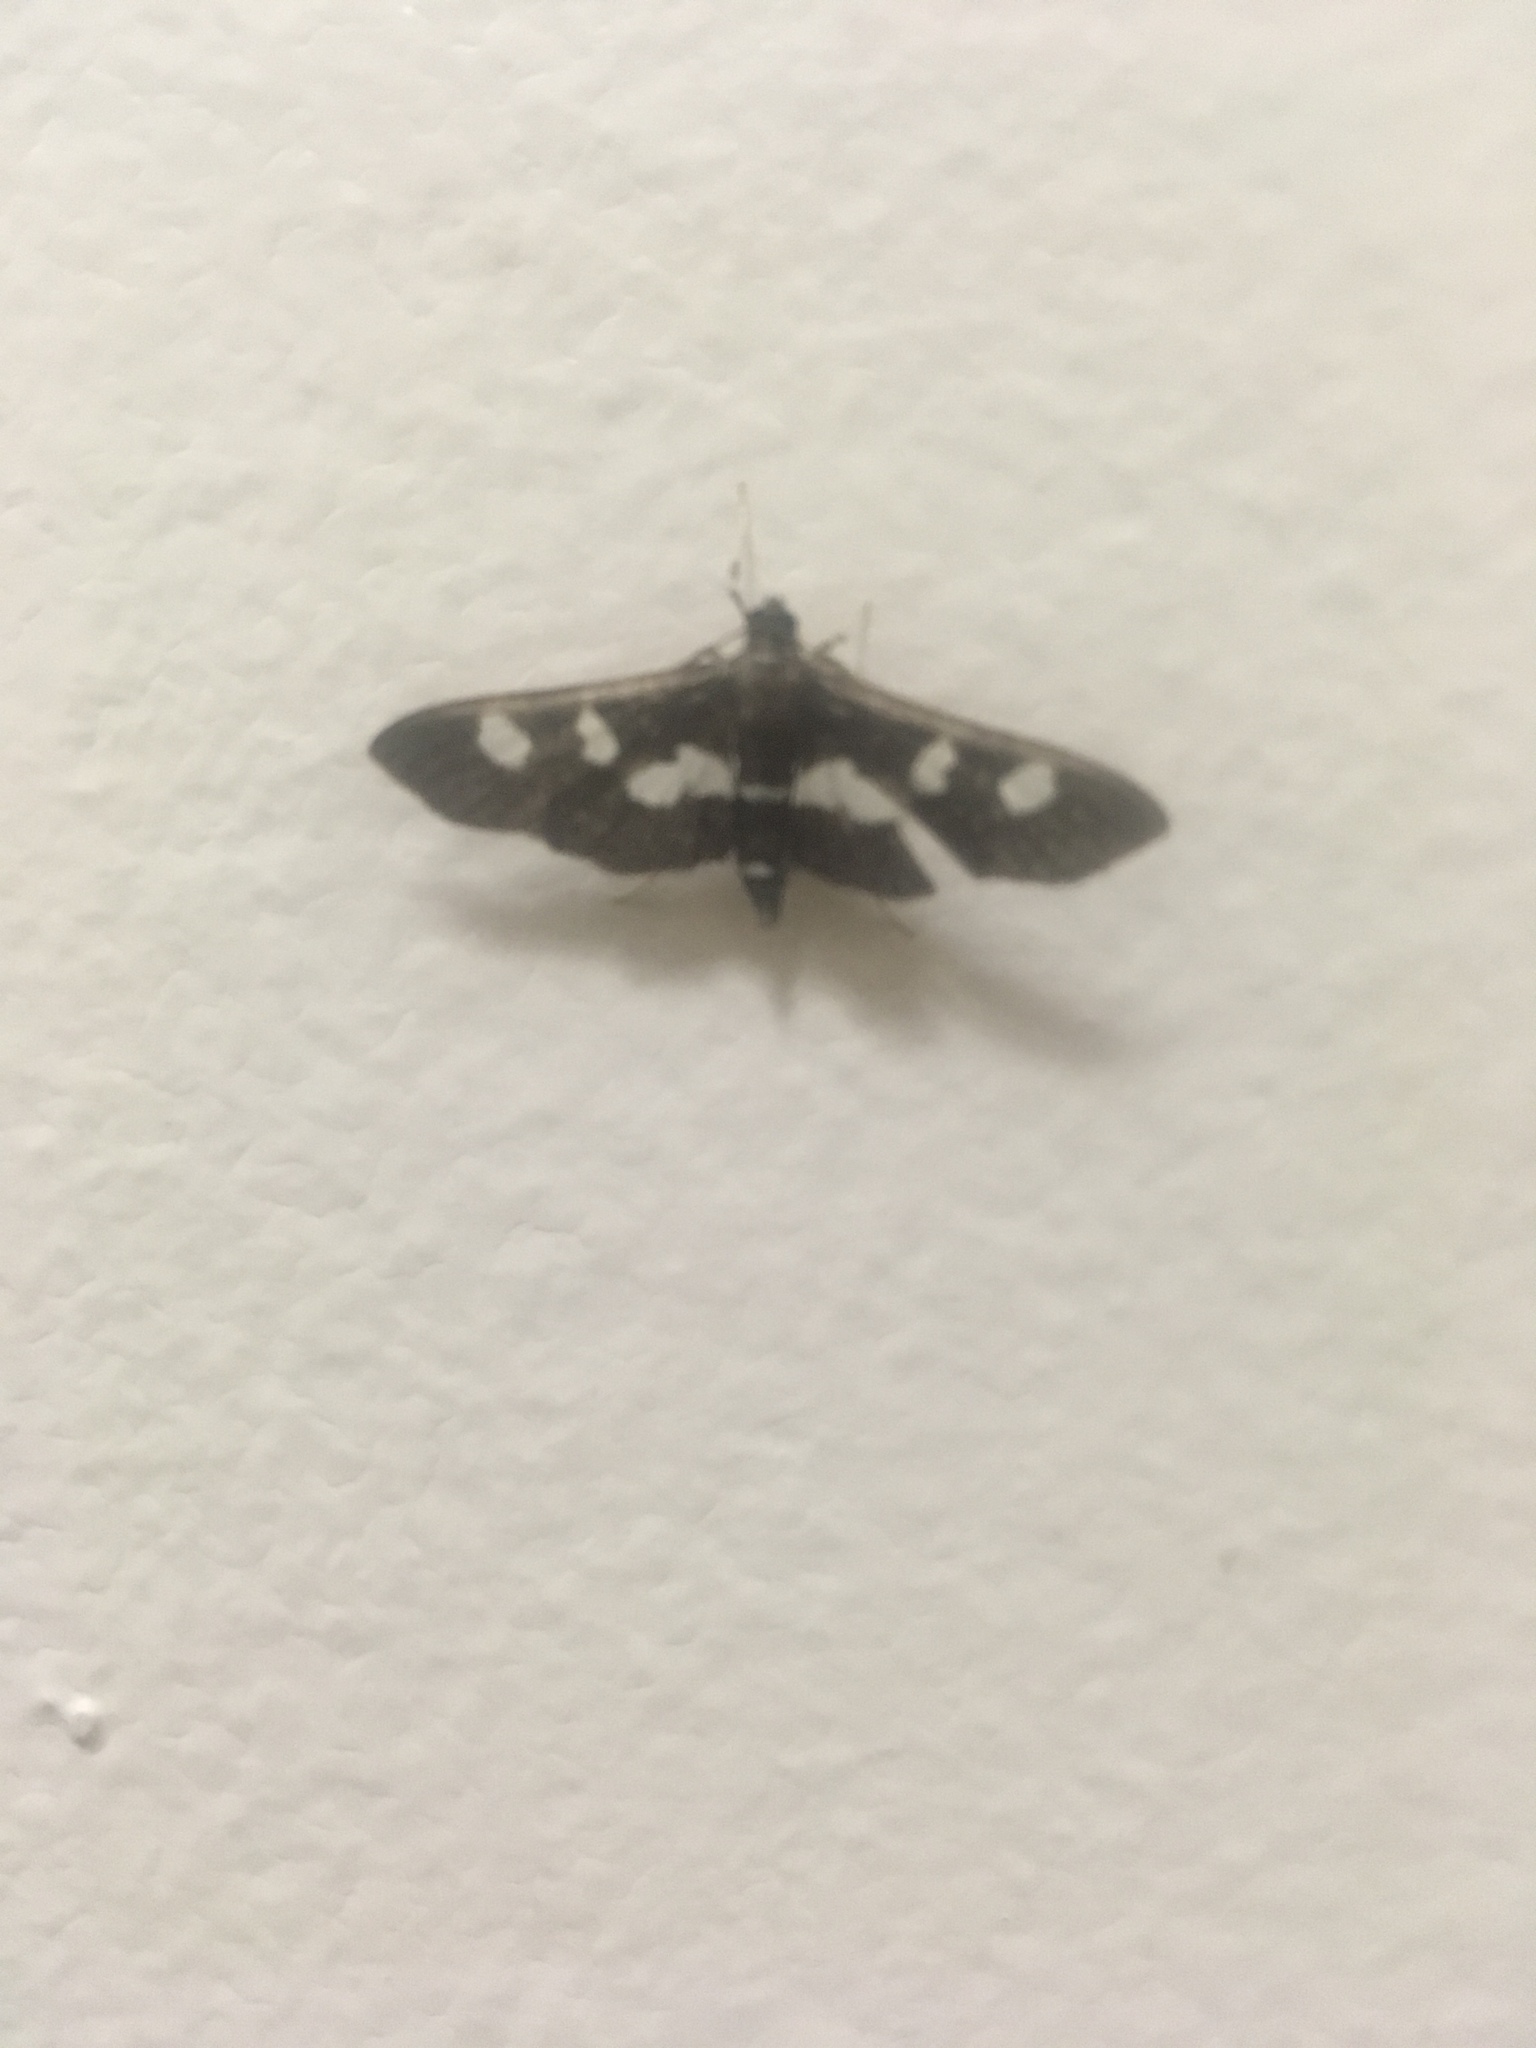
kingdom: Animalia
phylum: Arthropoda
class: Insecta
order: Lepidoptera
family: Crambidae
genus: Desmia
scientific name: Desmia
